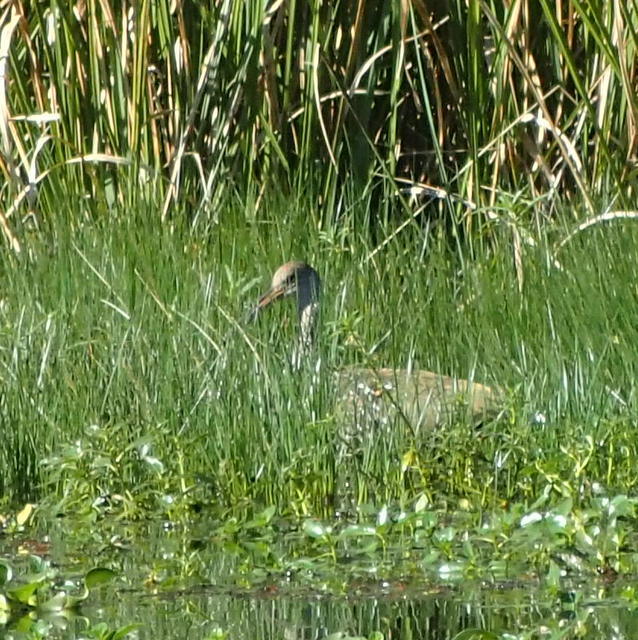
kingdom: Animalia
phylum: Chordata
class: Aves
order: Gruiformes
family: Aramidae
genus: Aramus
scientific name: Aramus guarauna
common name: Limpkin
